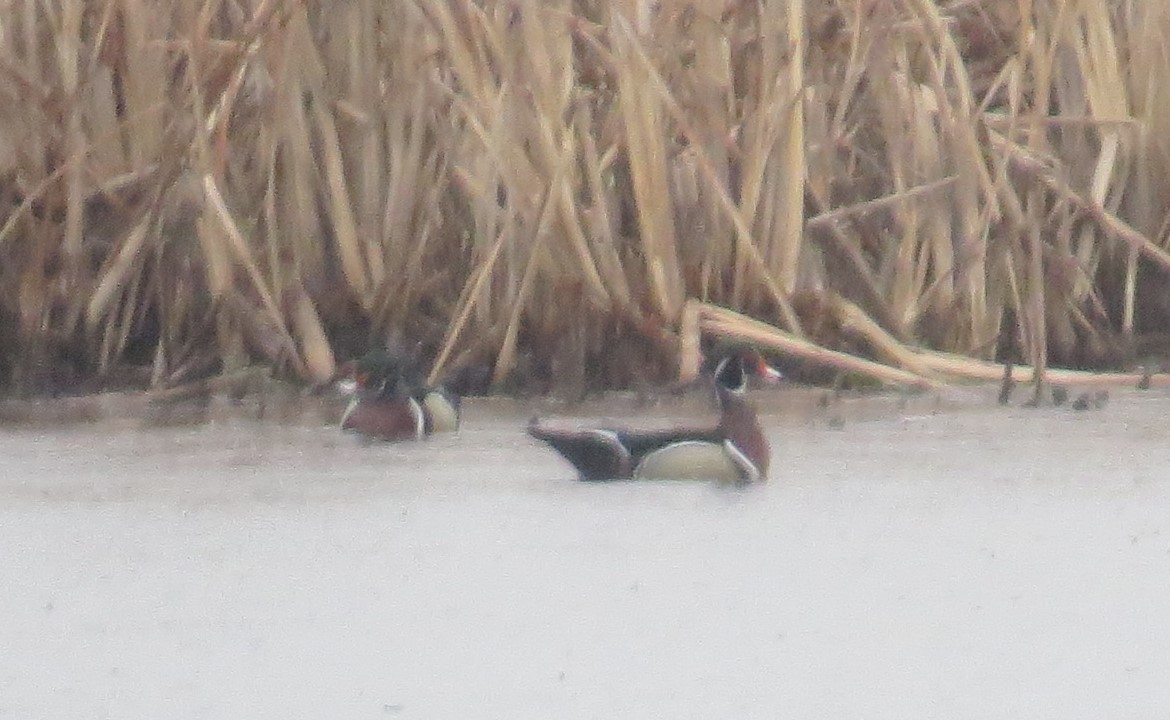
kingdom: Animalia
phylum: Chordata
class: Aves
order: Anseriformes
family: Anatidae
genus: Aix
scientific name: Aix sponsa
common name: Wood duck
